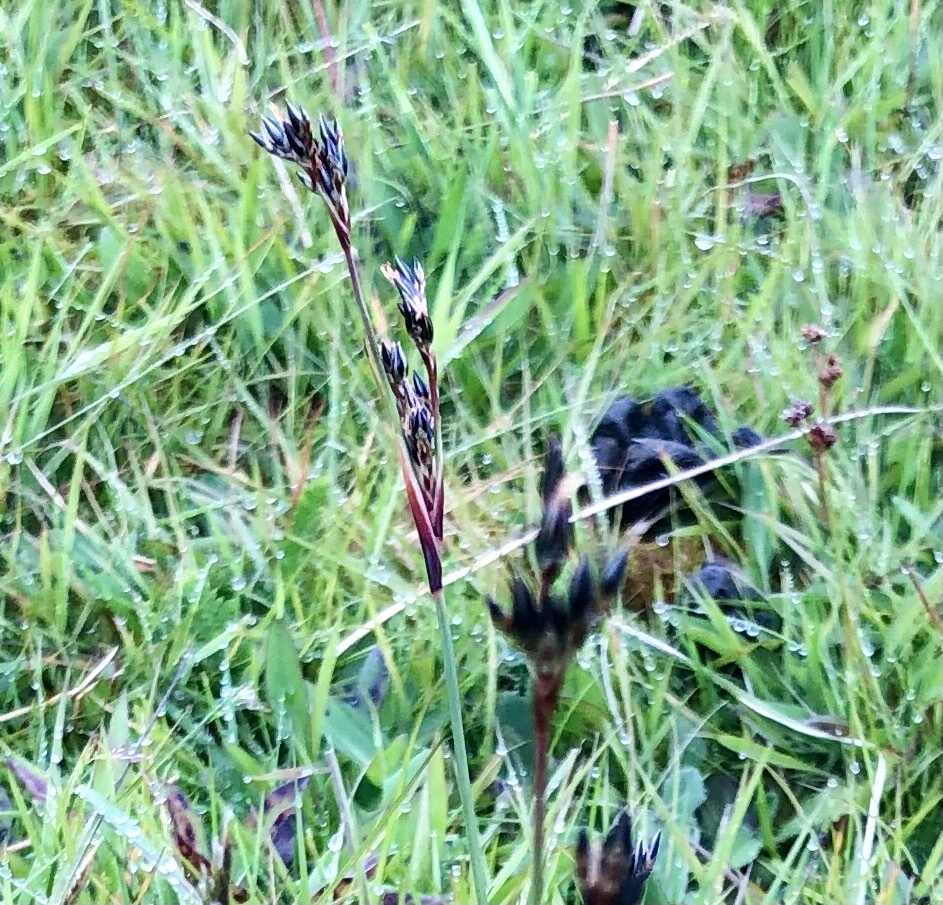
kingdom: Plantae
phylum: Tracheophyta
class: Liliopsida
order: Poales
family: Juncaceae
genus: Juncus
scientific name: Juncus squarrosus
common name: Heath rush
